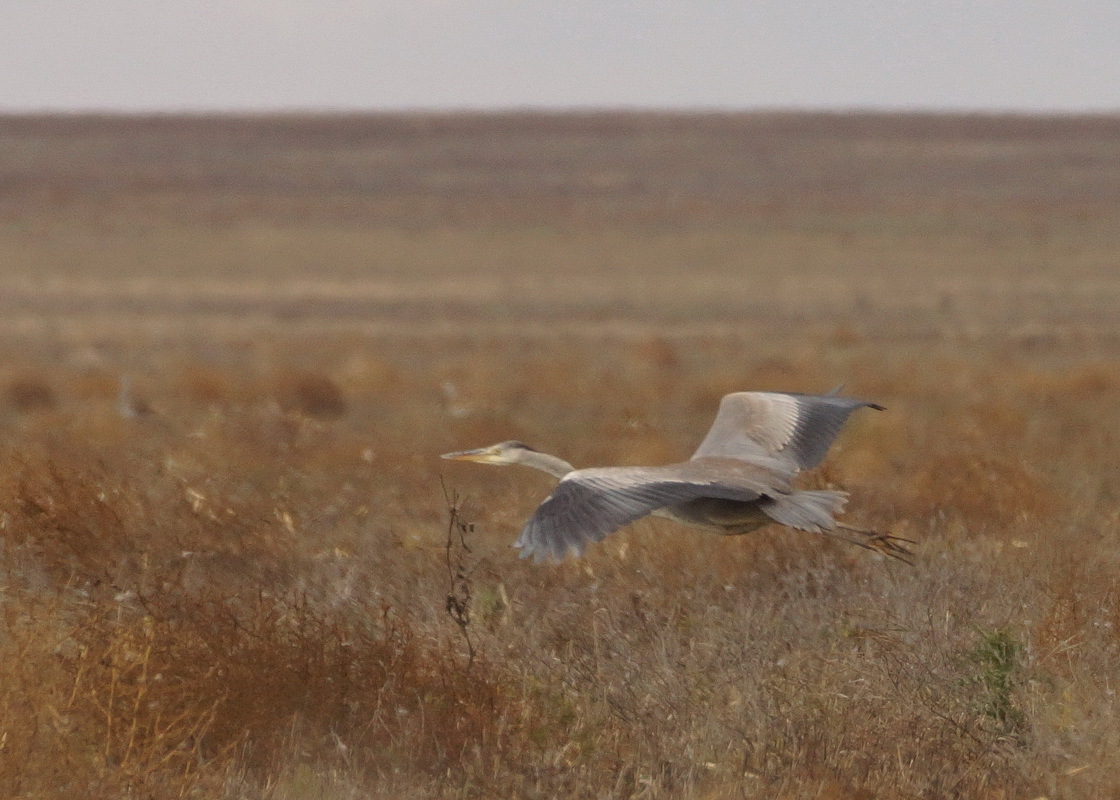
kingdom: Animalia
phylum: Chordata
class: Aves
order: Pelecaniformes
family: Ardeidae
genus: Ardea
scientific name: Ardea cinerea
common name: Grey heron
